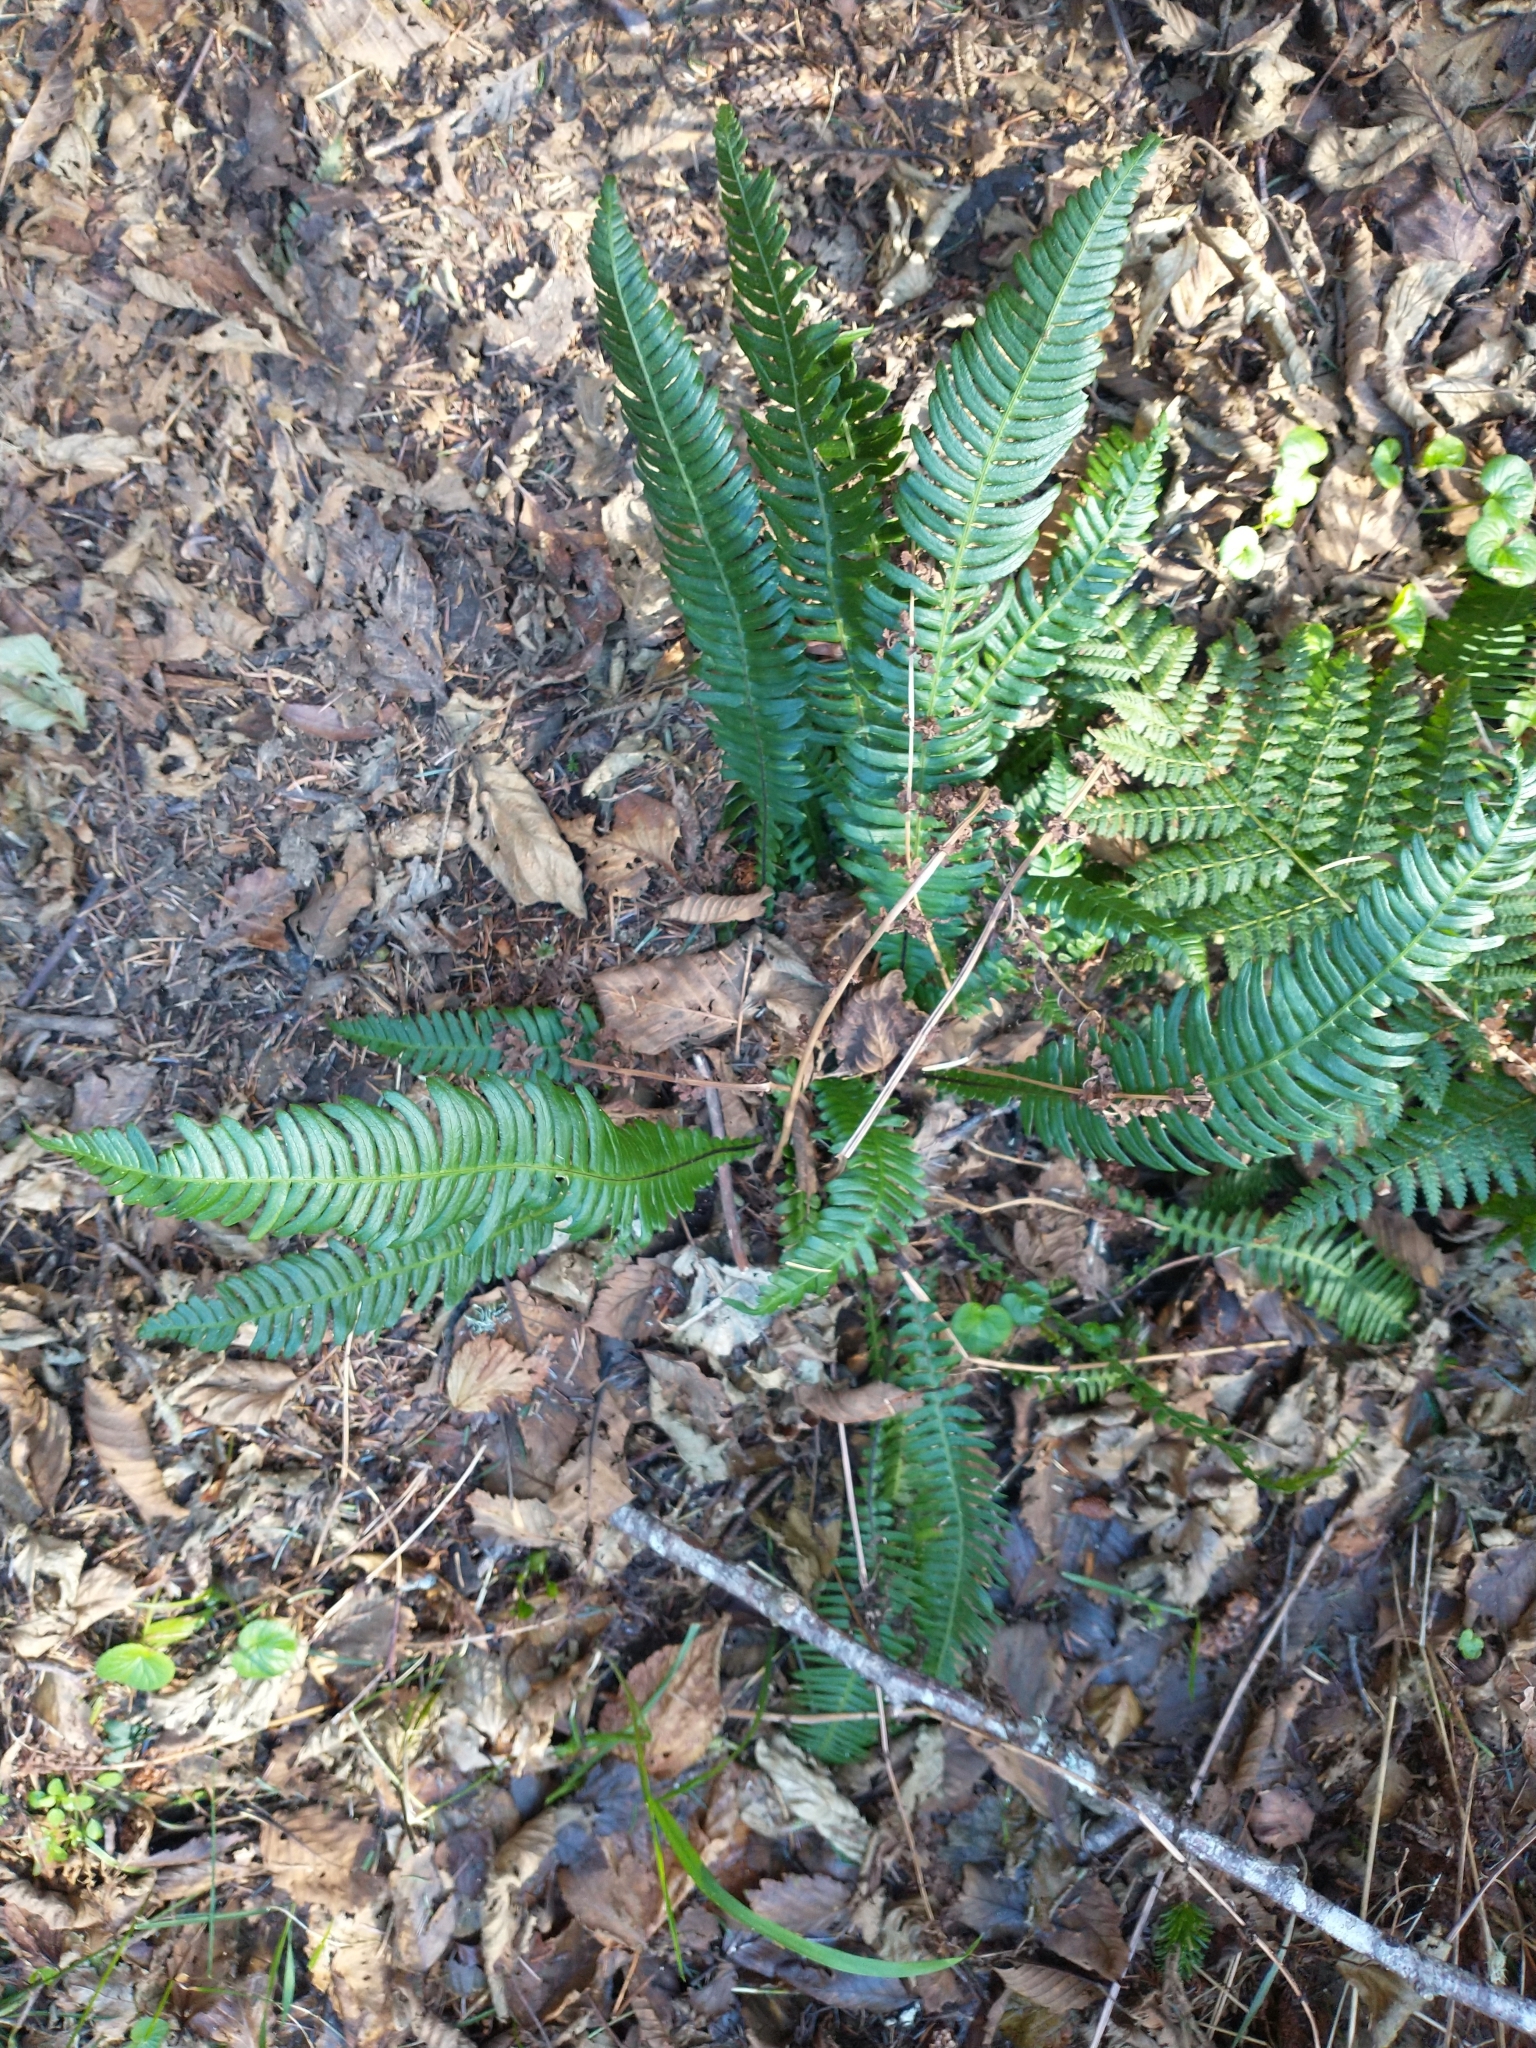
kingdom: Plantae
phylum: Tracheophyta
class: Polypodiopsida
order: Polypodiales
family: Blechnaceae
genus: Struthiopteris
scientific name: Struthiopteris spicant
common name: Deer fern
